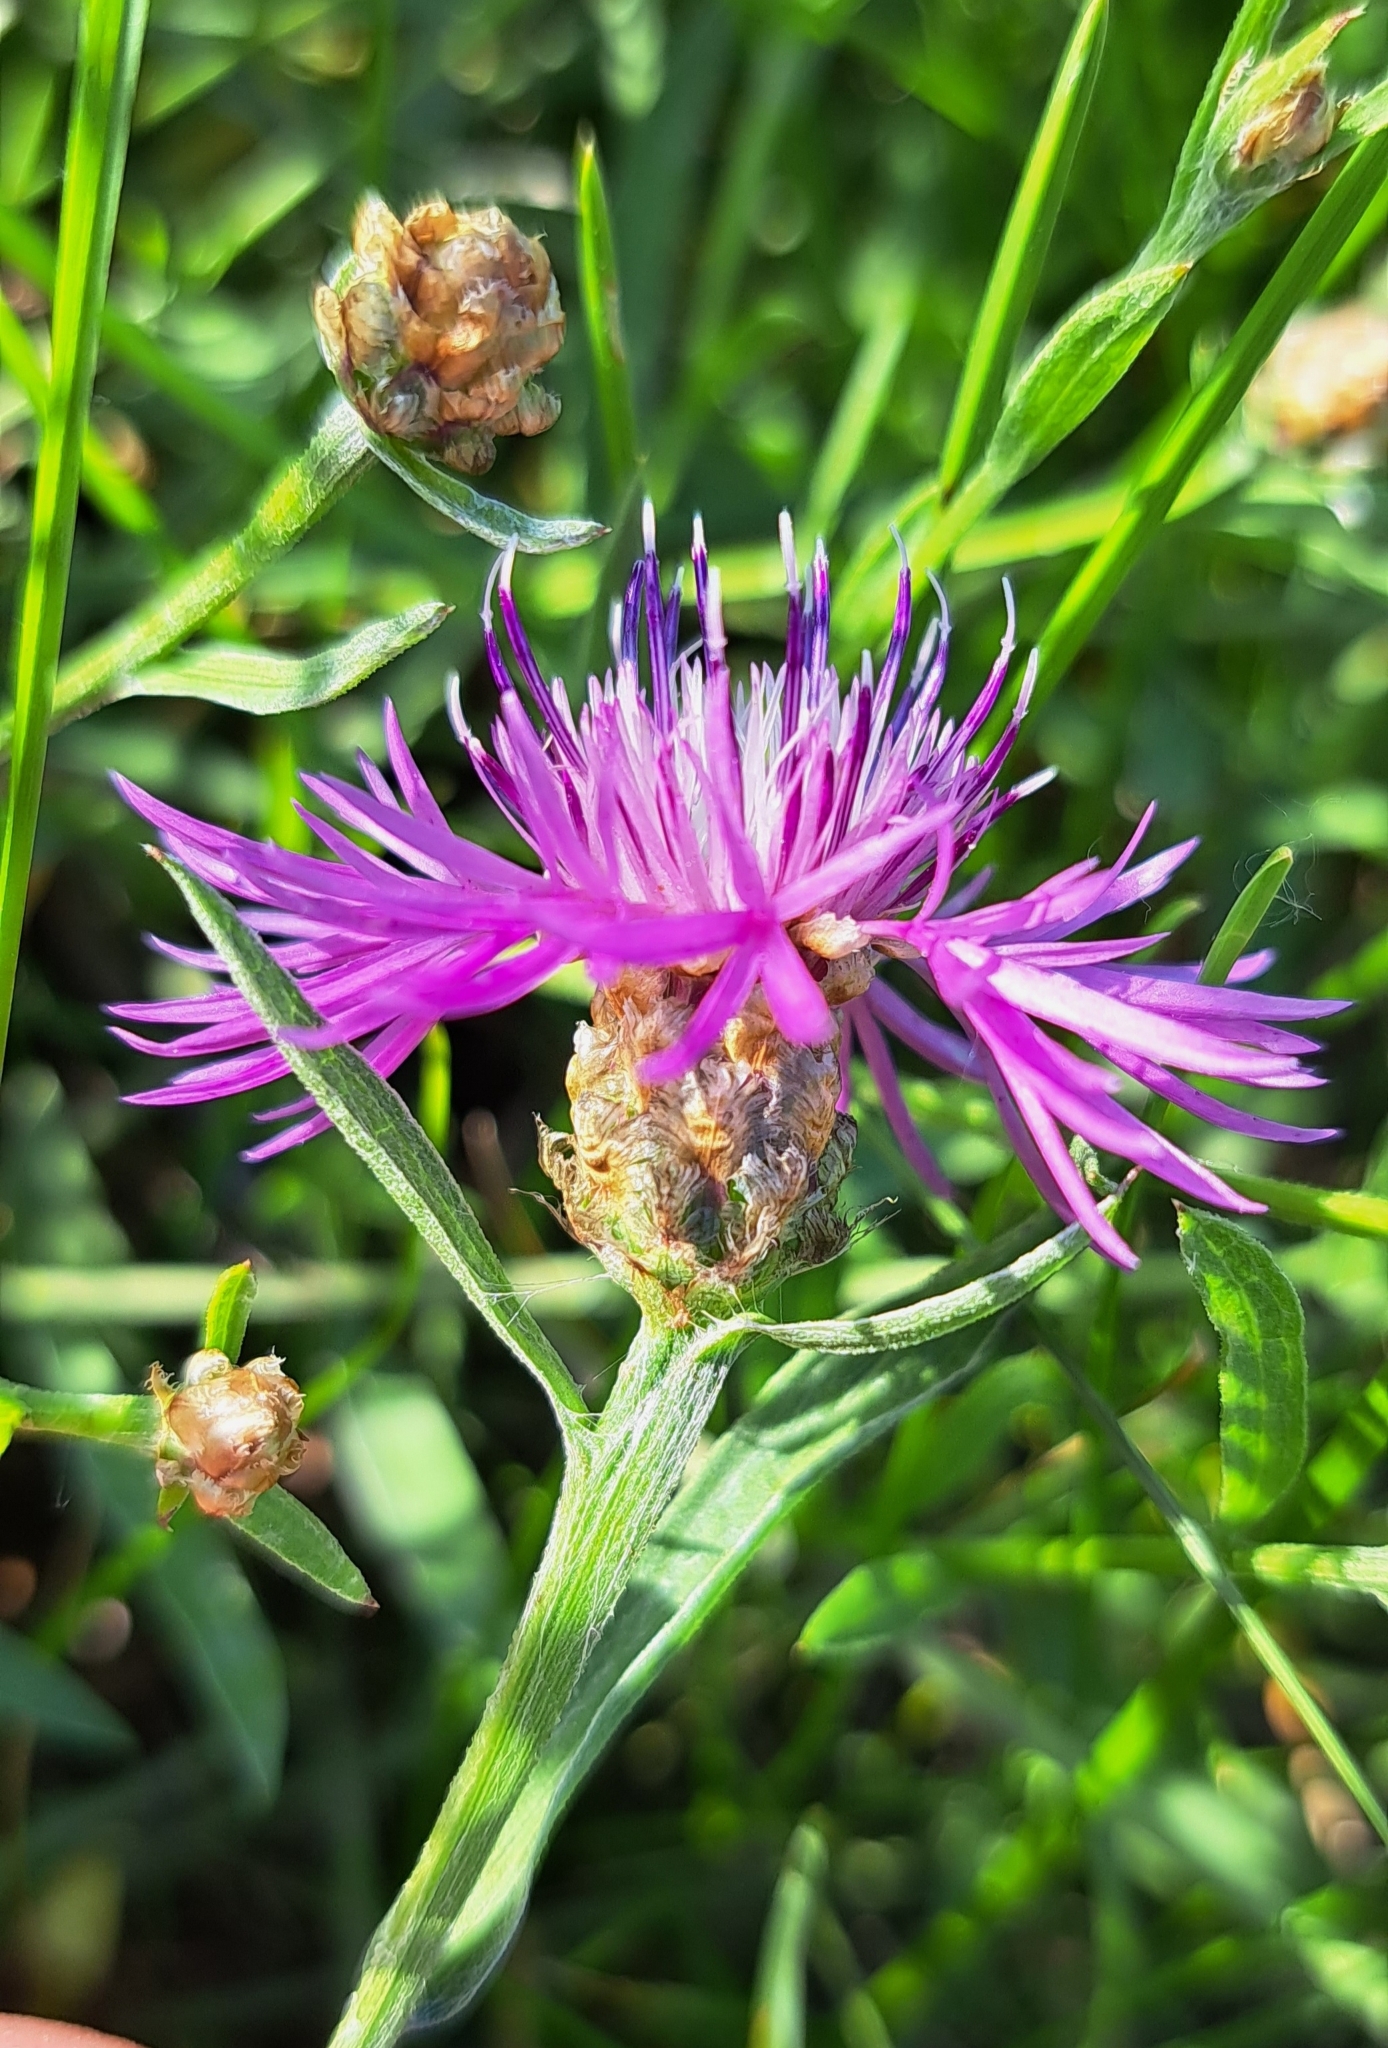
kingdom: Plantae
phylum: Tracheophyta
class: Magnoliopsida
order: Asterales
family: Asteraceae
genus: Centaurea
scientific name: Centaurea jacea
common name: Brown knapweed
